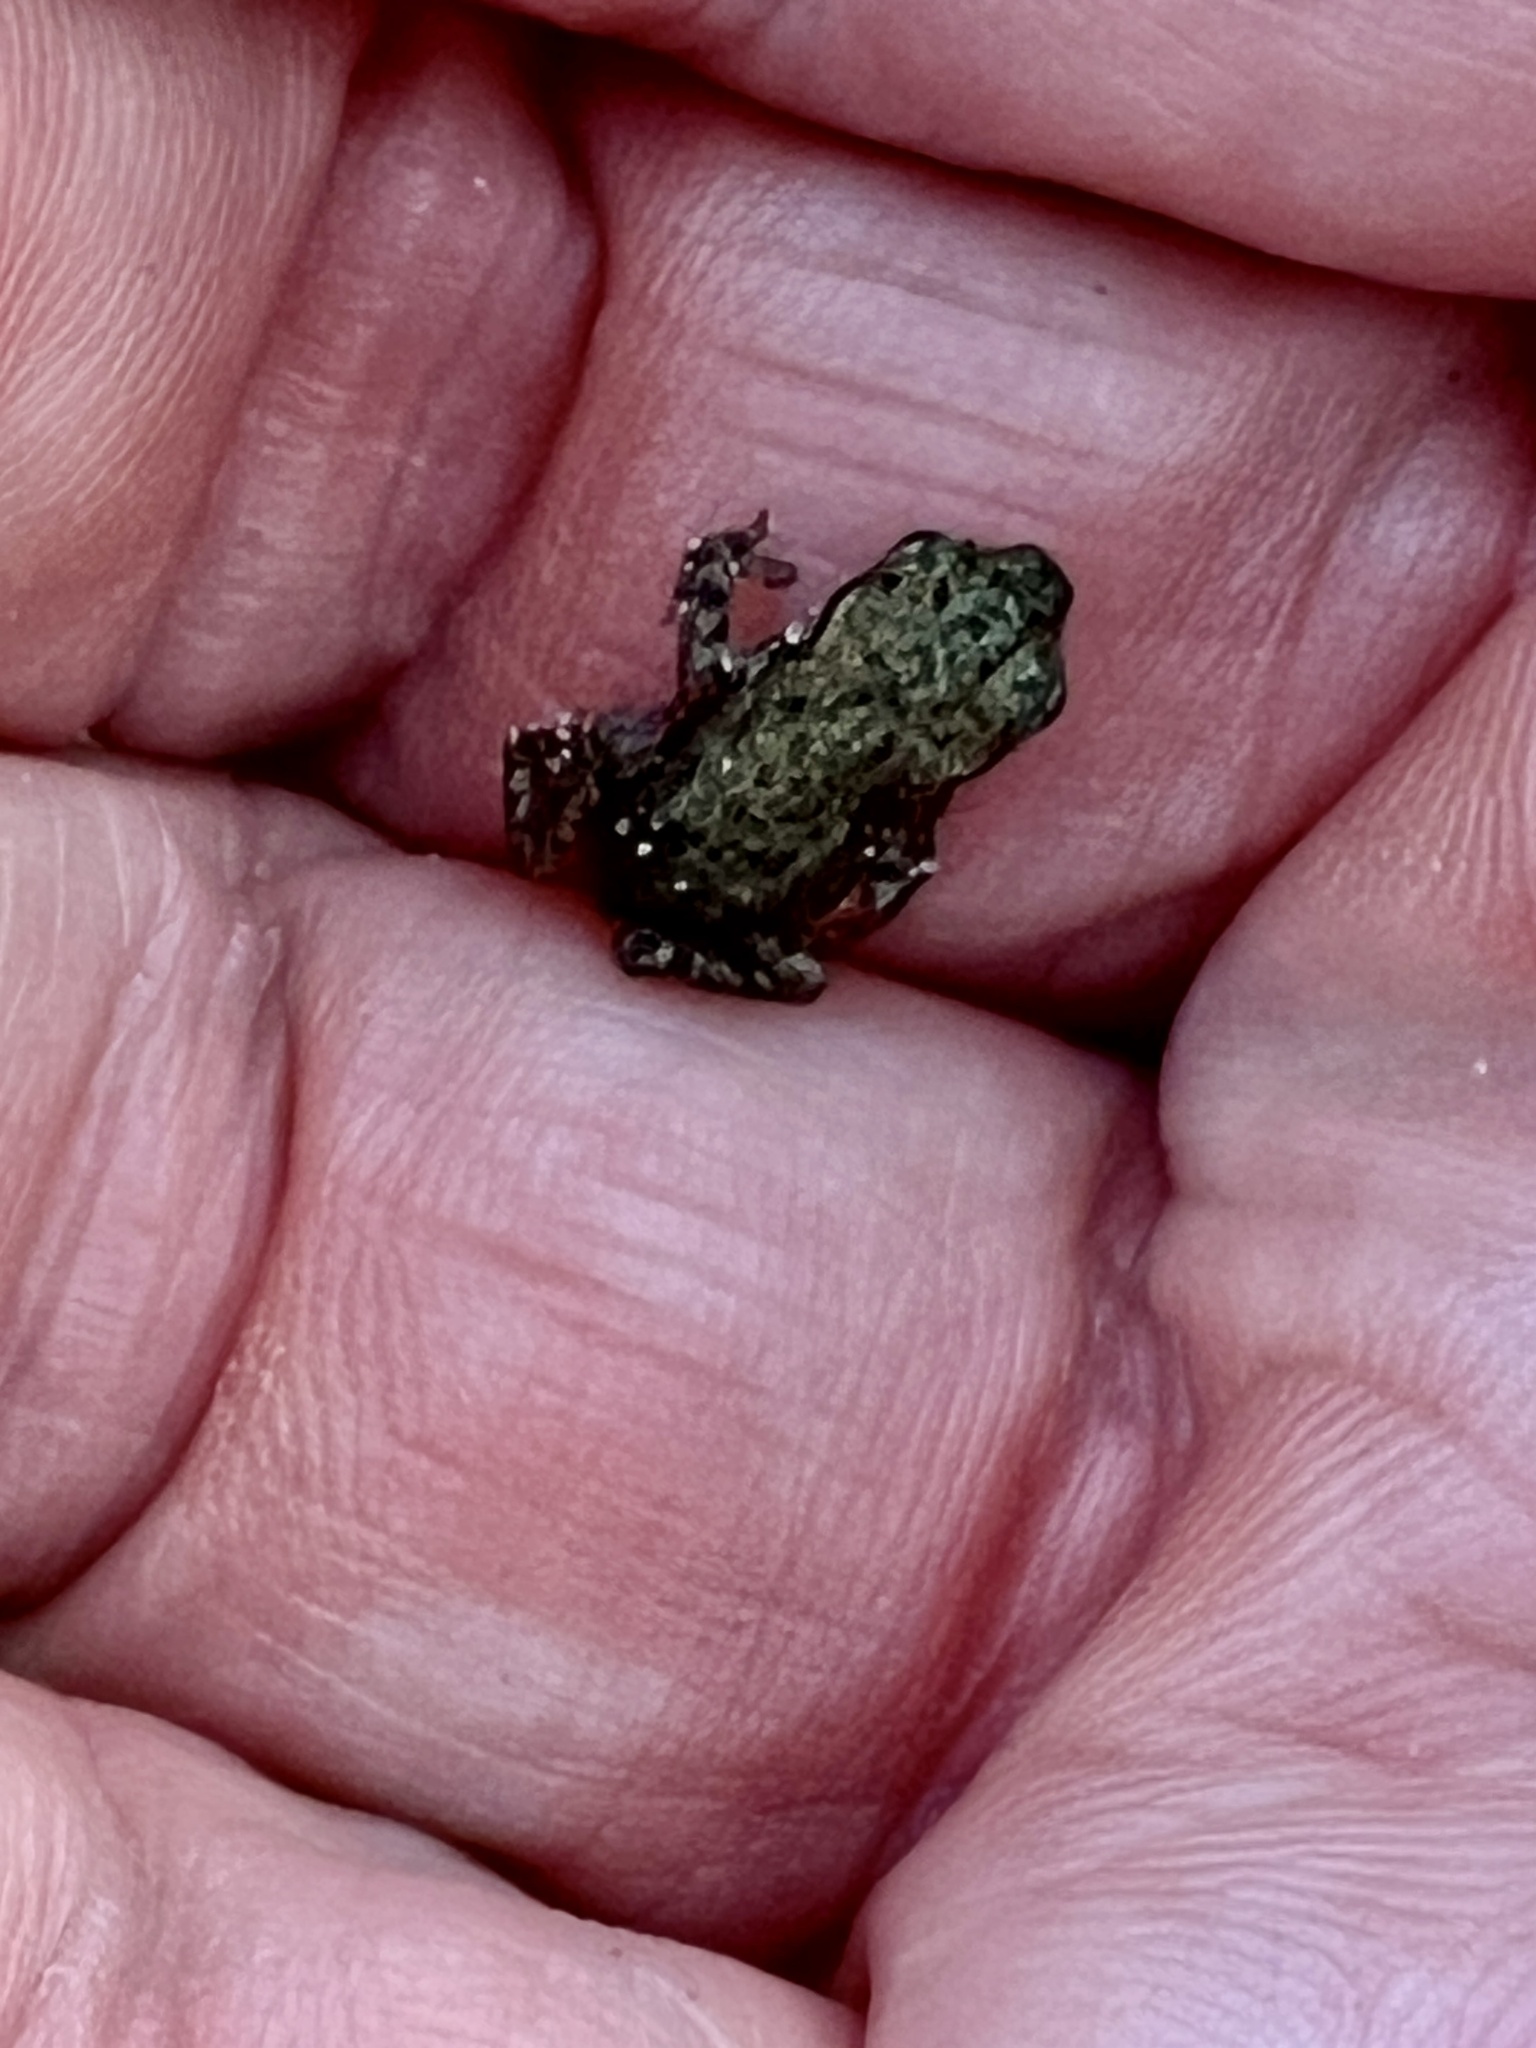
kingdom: Animalia
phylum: Chordata
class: Amphibia
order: Anura
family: Bufonidae
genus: Bufo
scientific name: Bufo bufo
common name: Common toad
